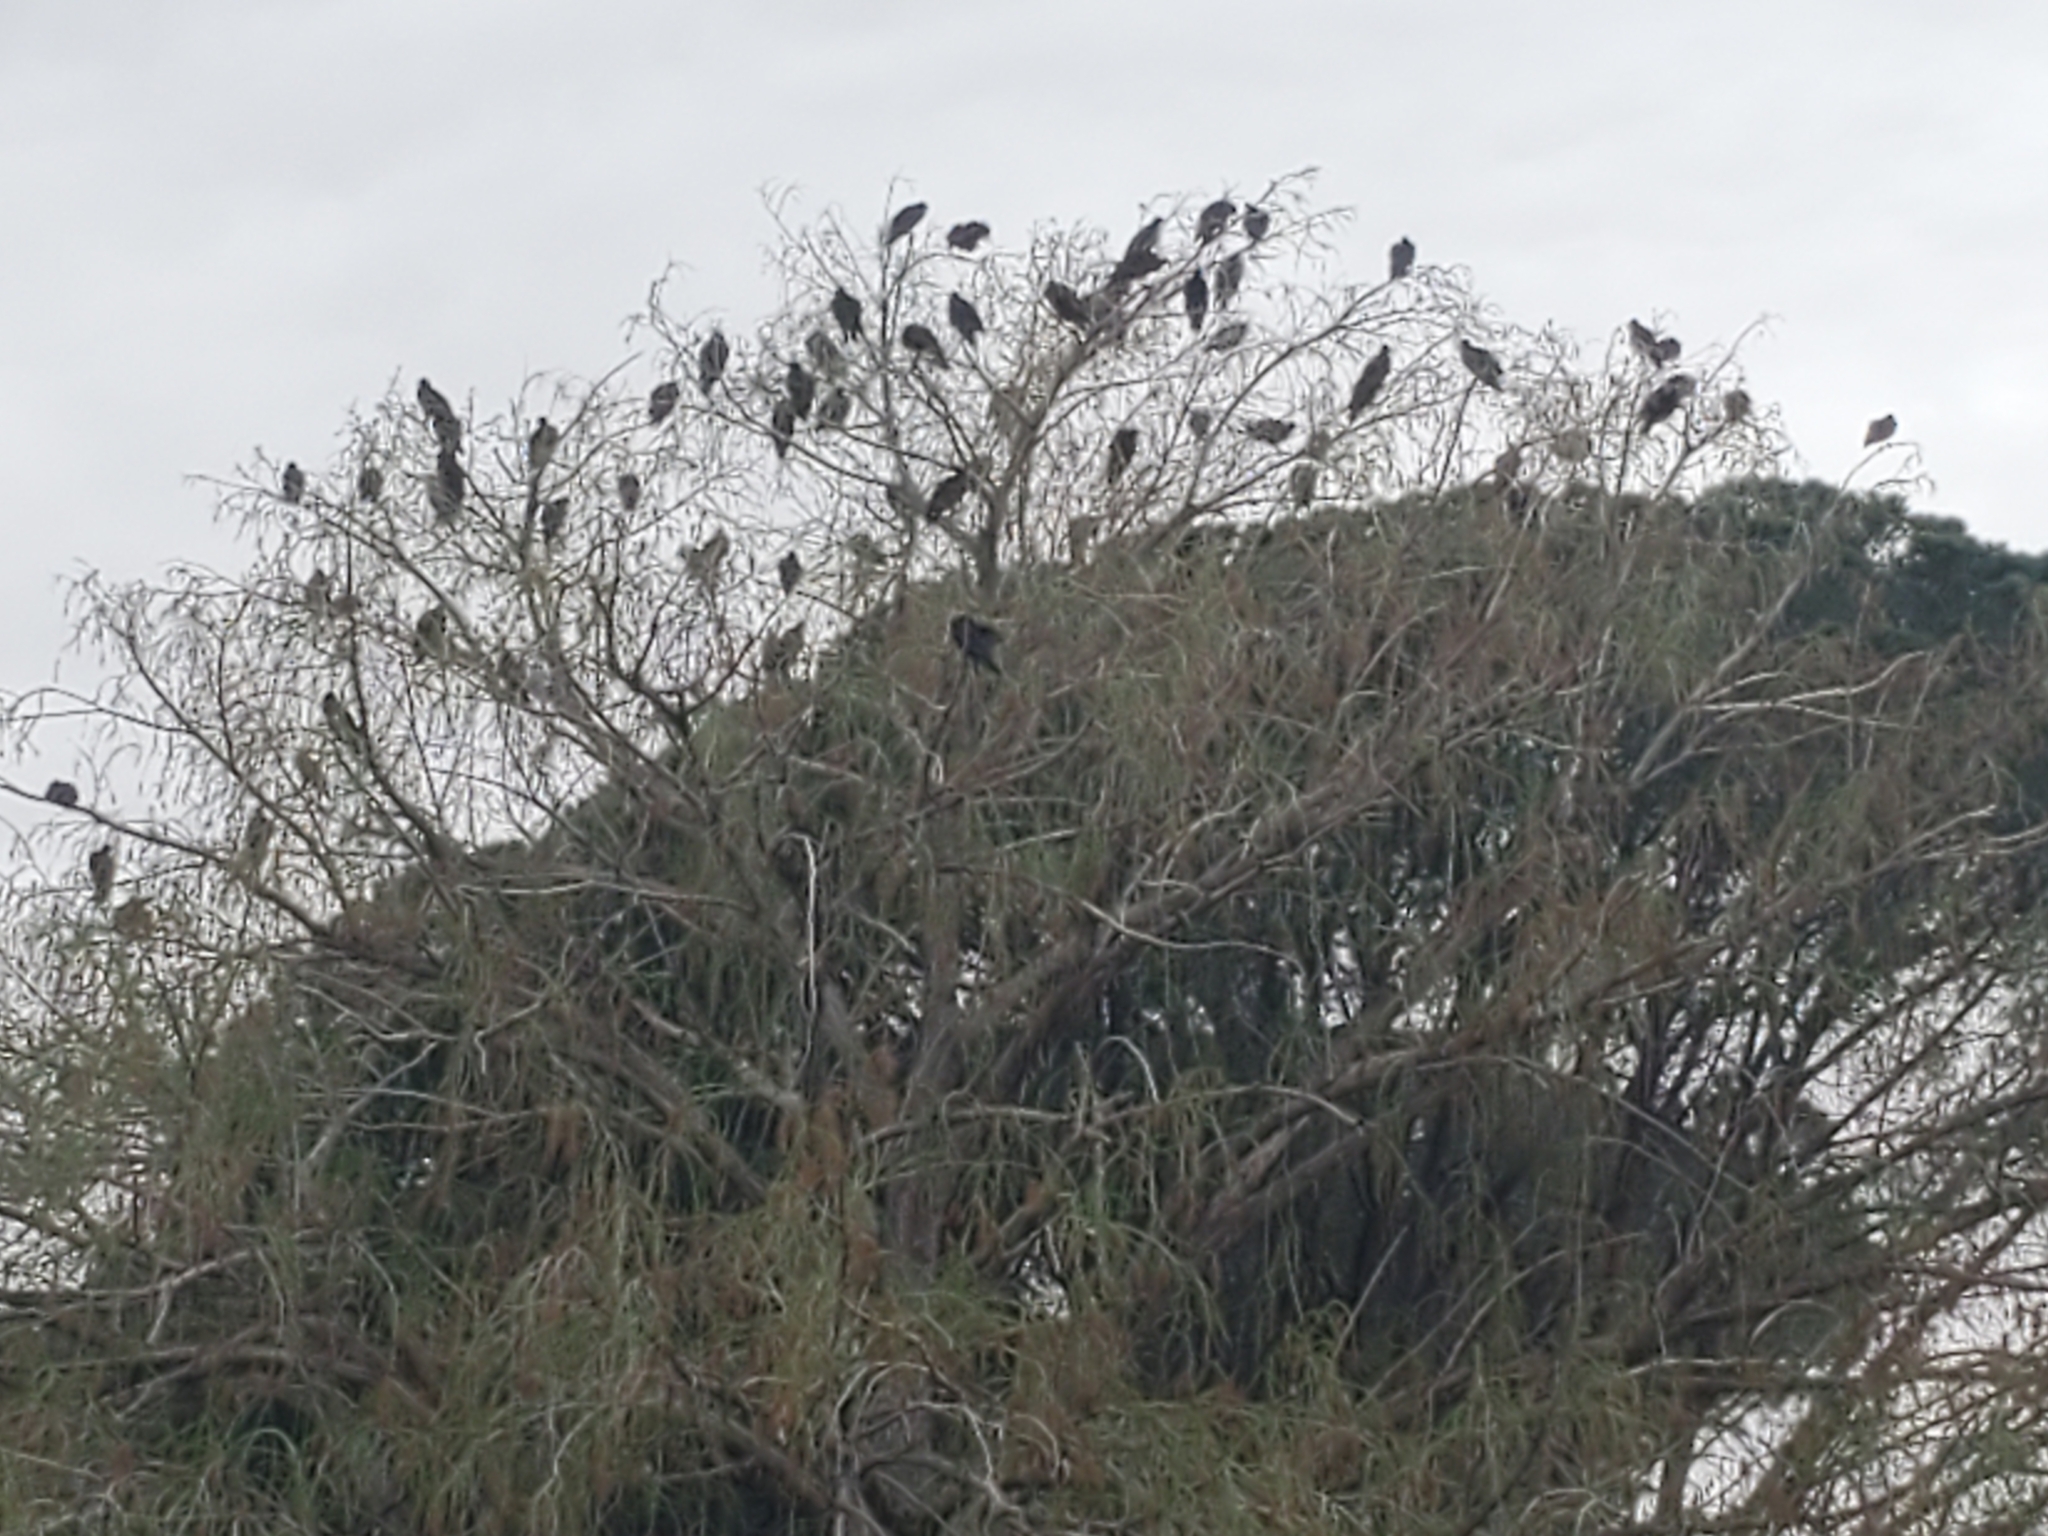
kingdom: Animalia
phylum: Chordata
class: Aves
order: Accipitriformes
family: Cathartidae
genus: Cathartes
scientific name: Cathartes aura
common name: Turkey vulture
